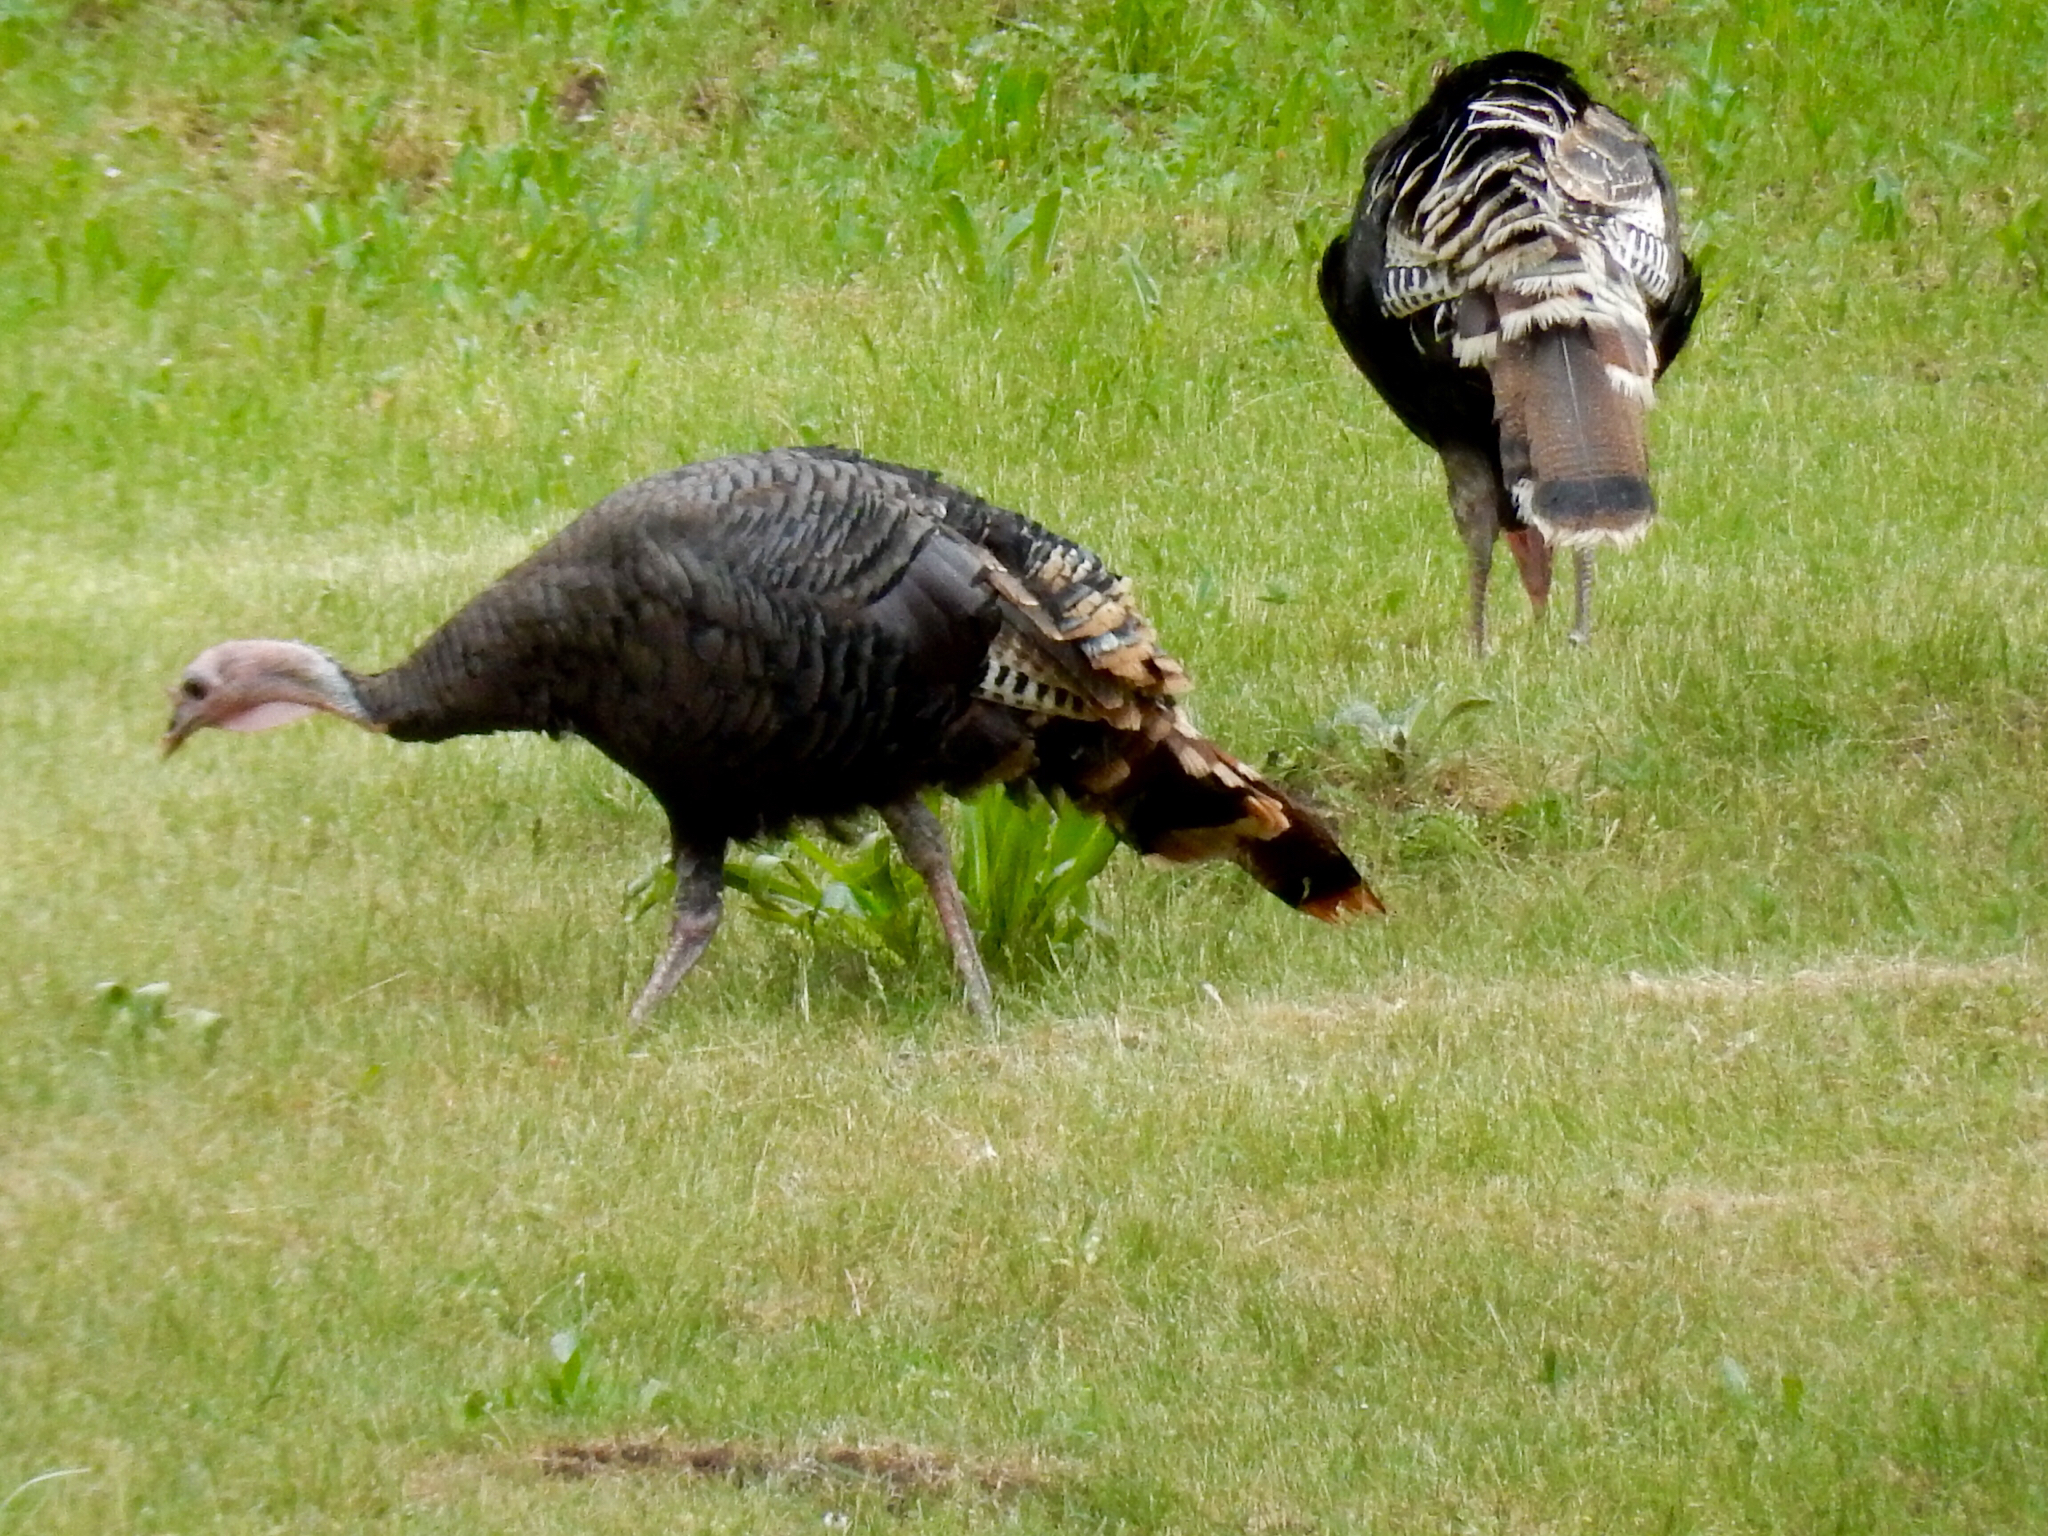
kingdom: Animalia
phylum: Chordata
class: Aves
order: Galliformes
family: Phasianidae
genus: Meleagris
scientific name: Meleagris gallopavo
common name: Wild turkey
